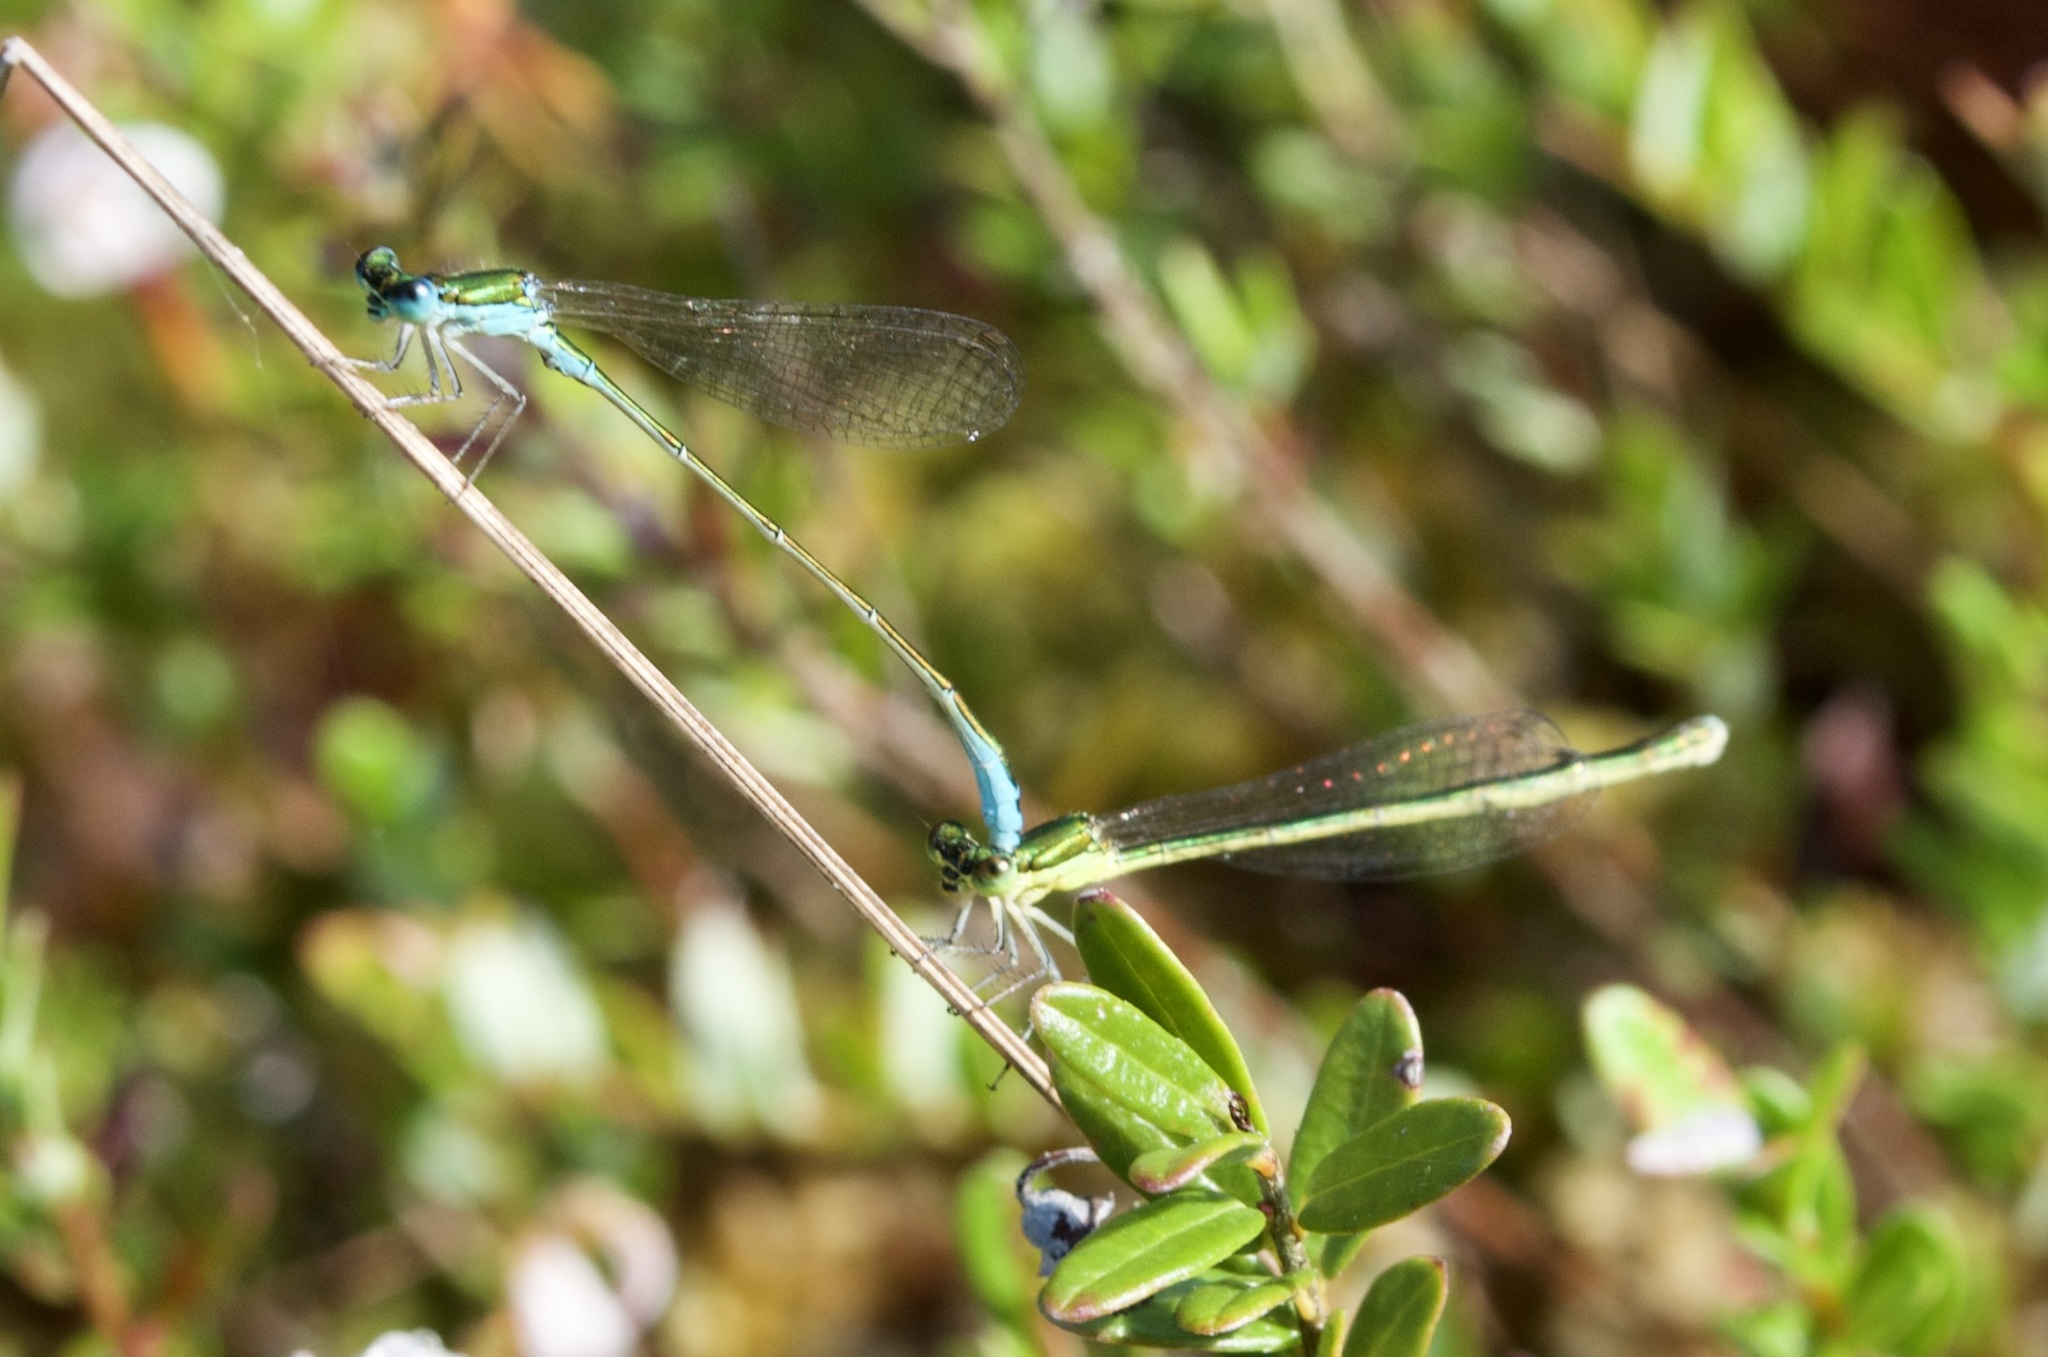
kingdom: Animalia
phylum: Arthropoda
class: Insecta
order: Odonata
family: Coenagrionidae
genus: Nehalennia
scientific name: Nehalennia irene
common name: Sedge sprite
